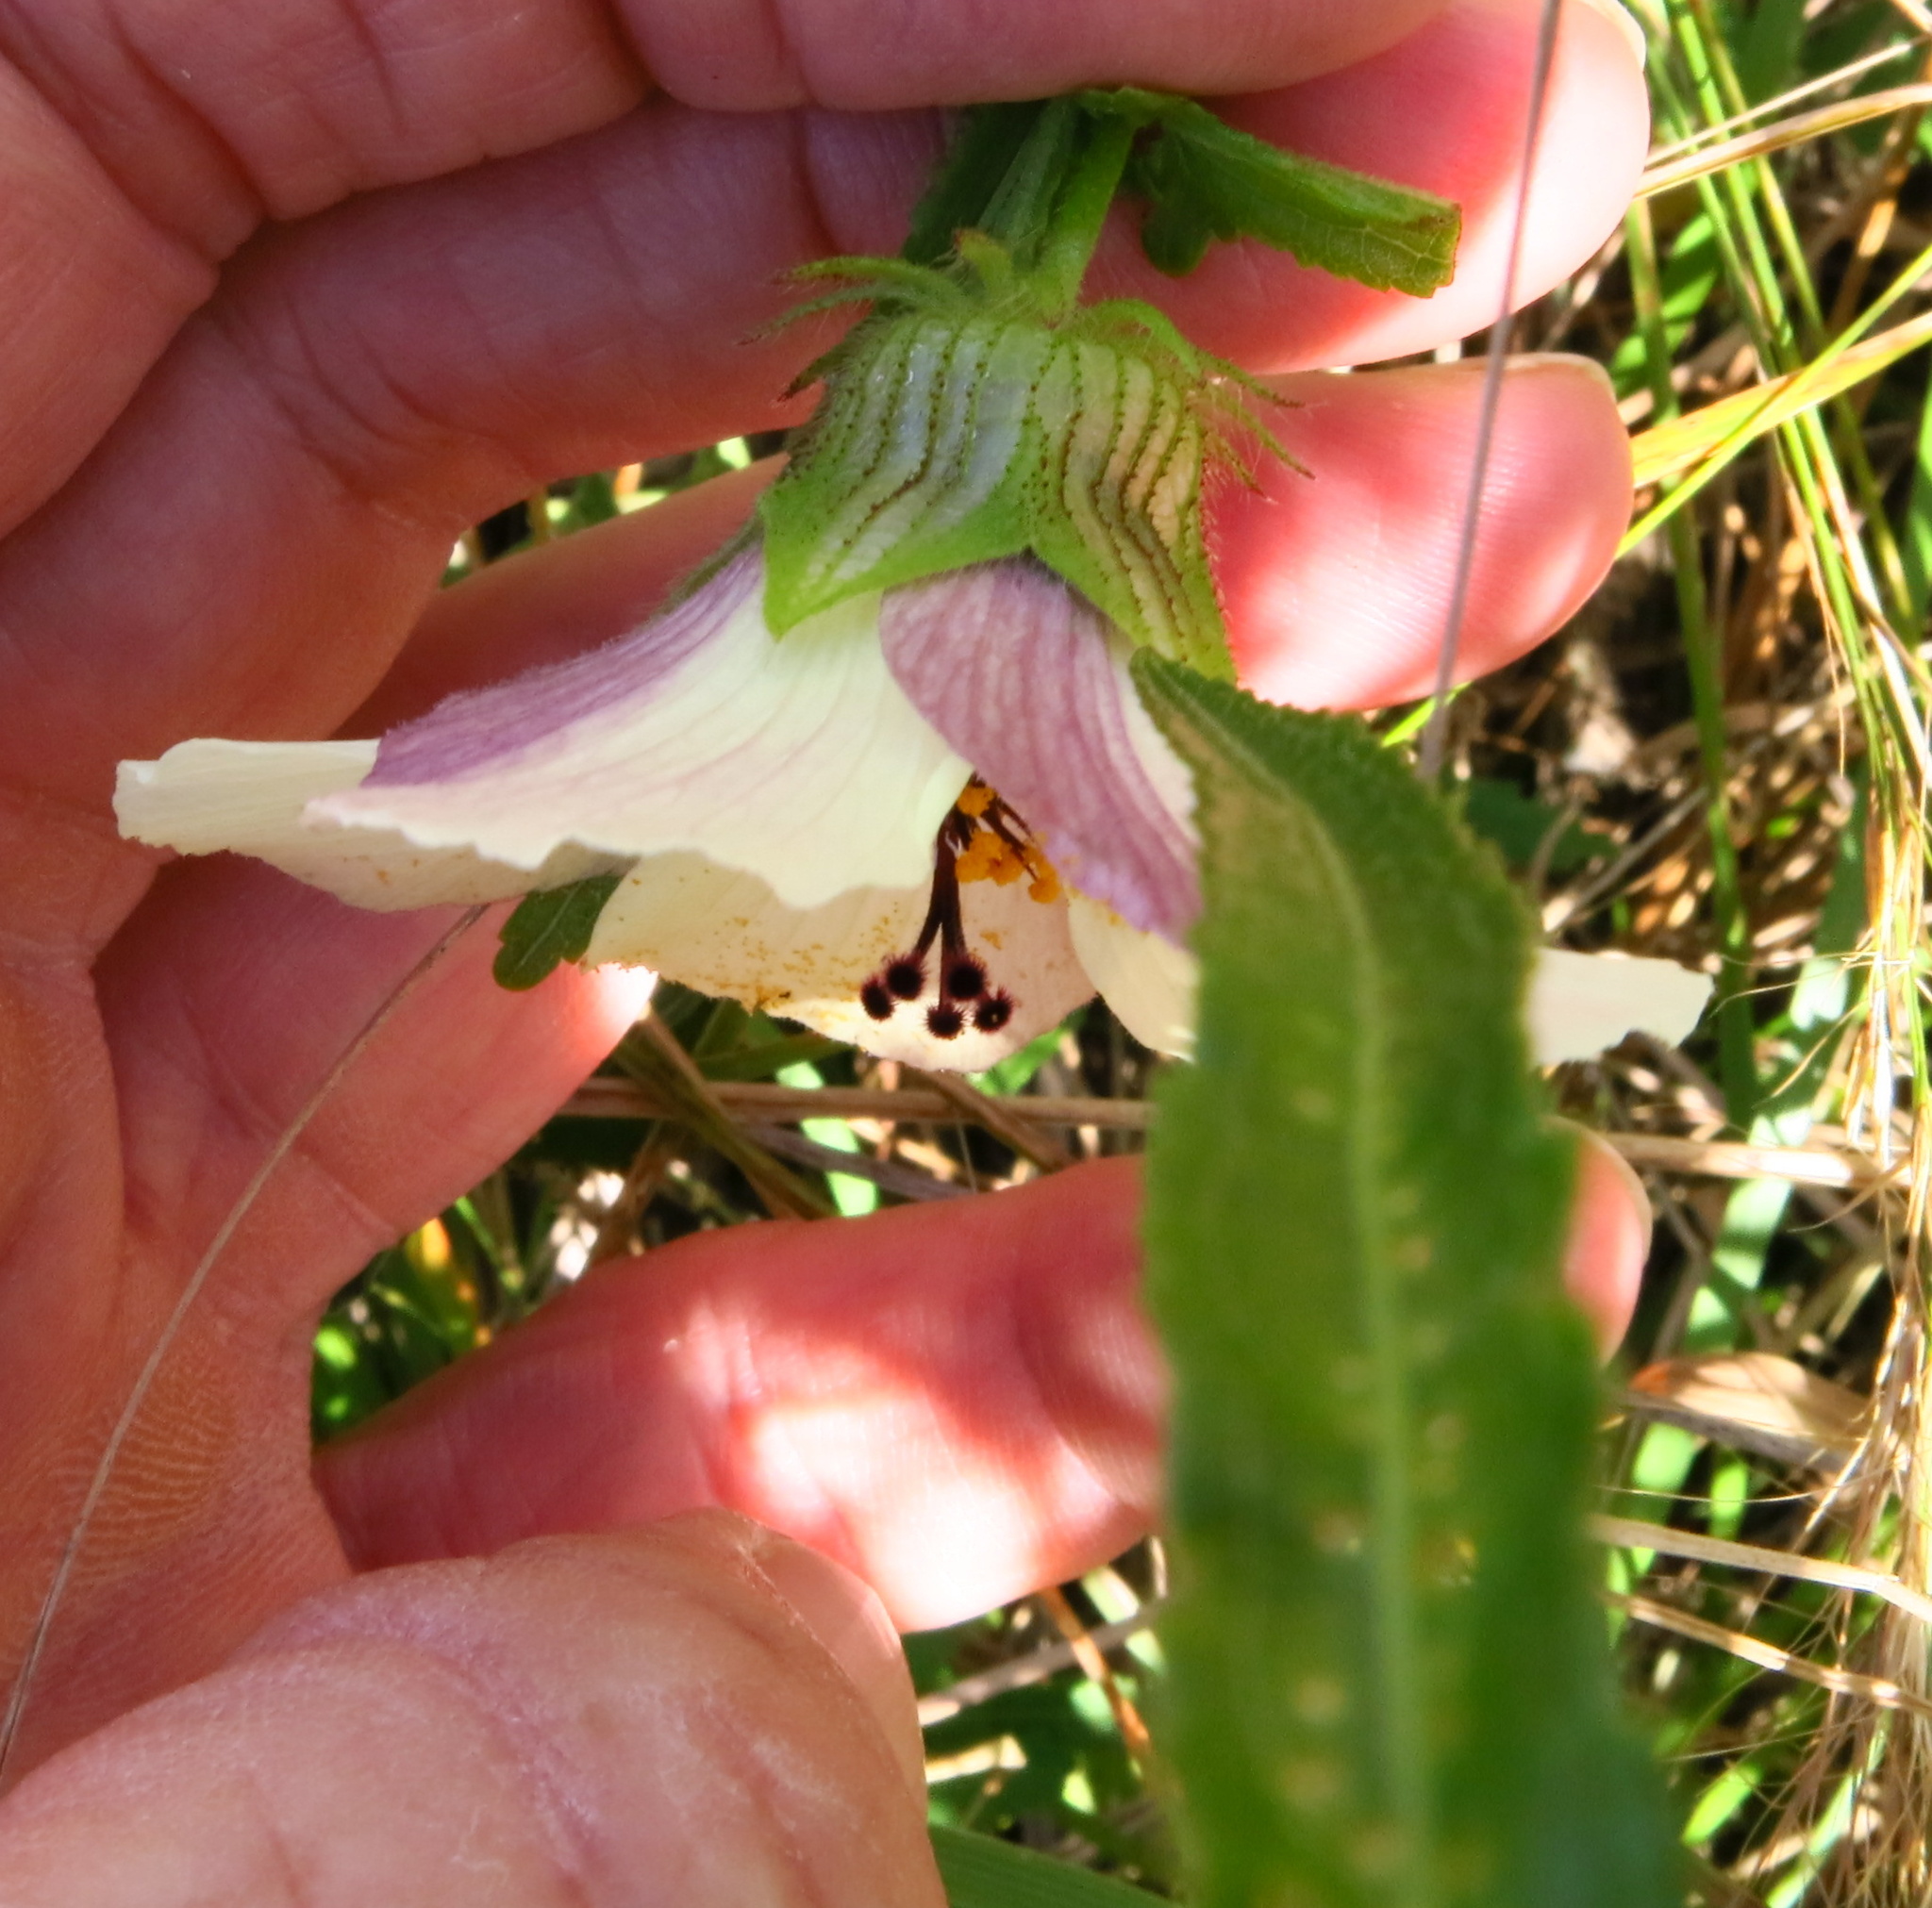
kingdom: Plantae
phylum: Tracheophyta
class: Magnoliopsida
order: Malvales
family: Malvaceae
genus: Hibiscus
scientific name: Hibiscus trionum
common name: Bladder ketmia
